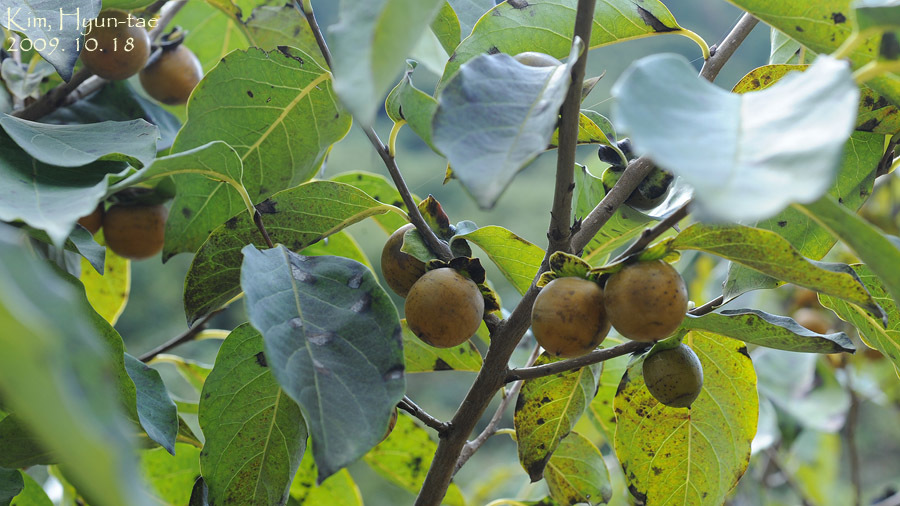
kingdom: Plantae
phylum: Tracheophyta
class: Magnoliopsida
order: Ericales
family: Ebenaceae
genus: Diospyros
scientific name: Diospyros lotus
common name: Date-plum
